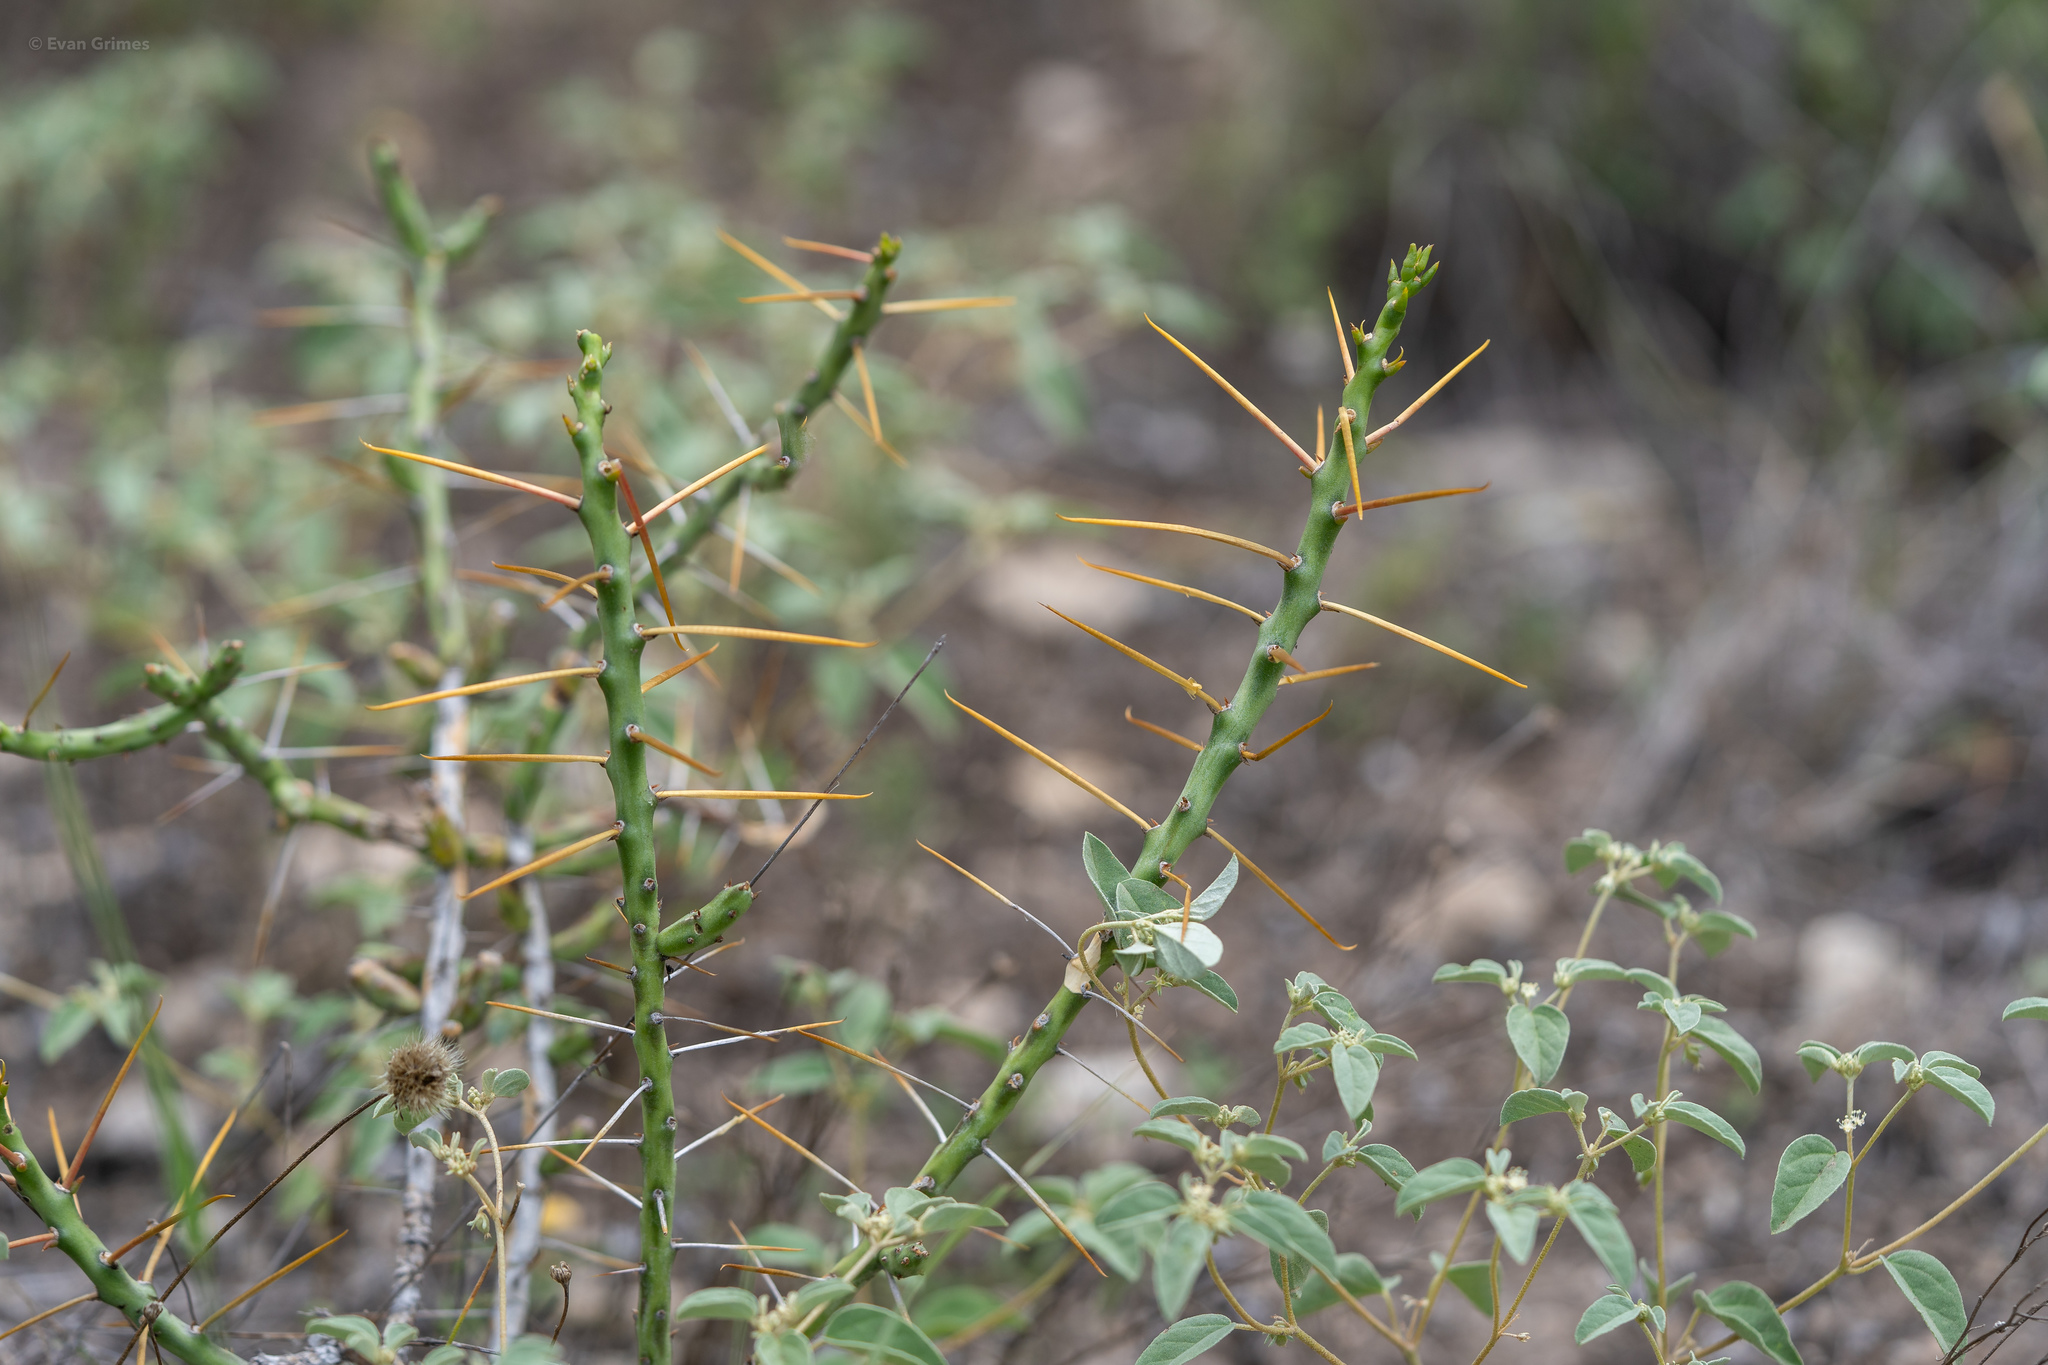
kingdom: Plantae
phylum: Tracheophyta
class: Magnoliopsida
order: Caryophyllales
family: Cactaceae
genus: Cylindropuntia
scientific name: Cylindropuntia leptocaulis
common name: Christmas cactus
